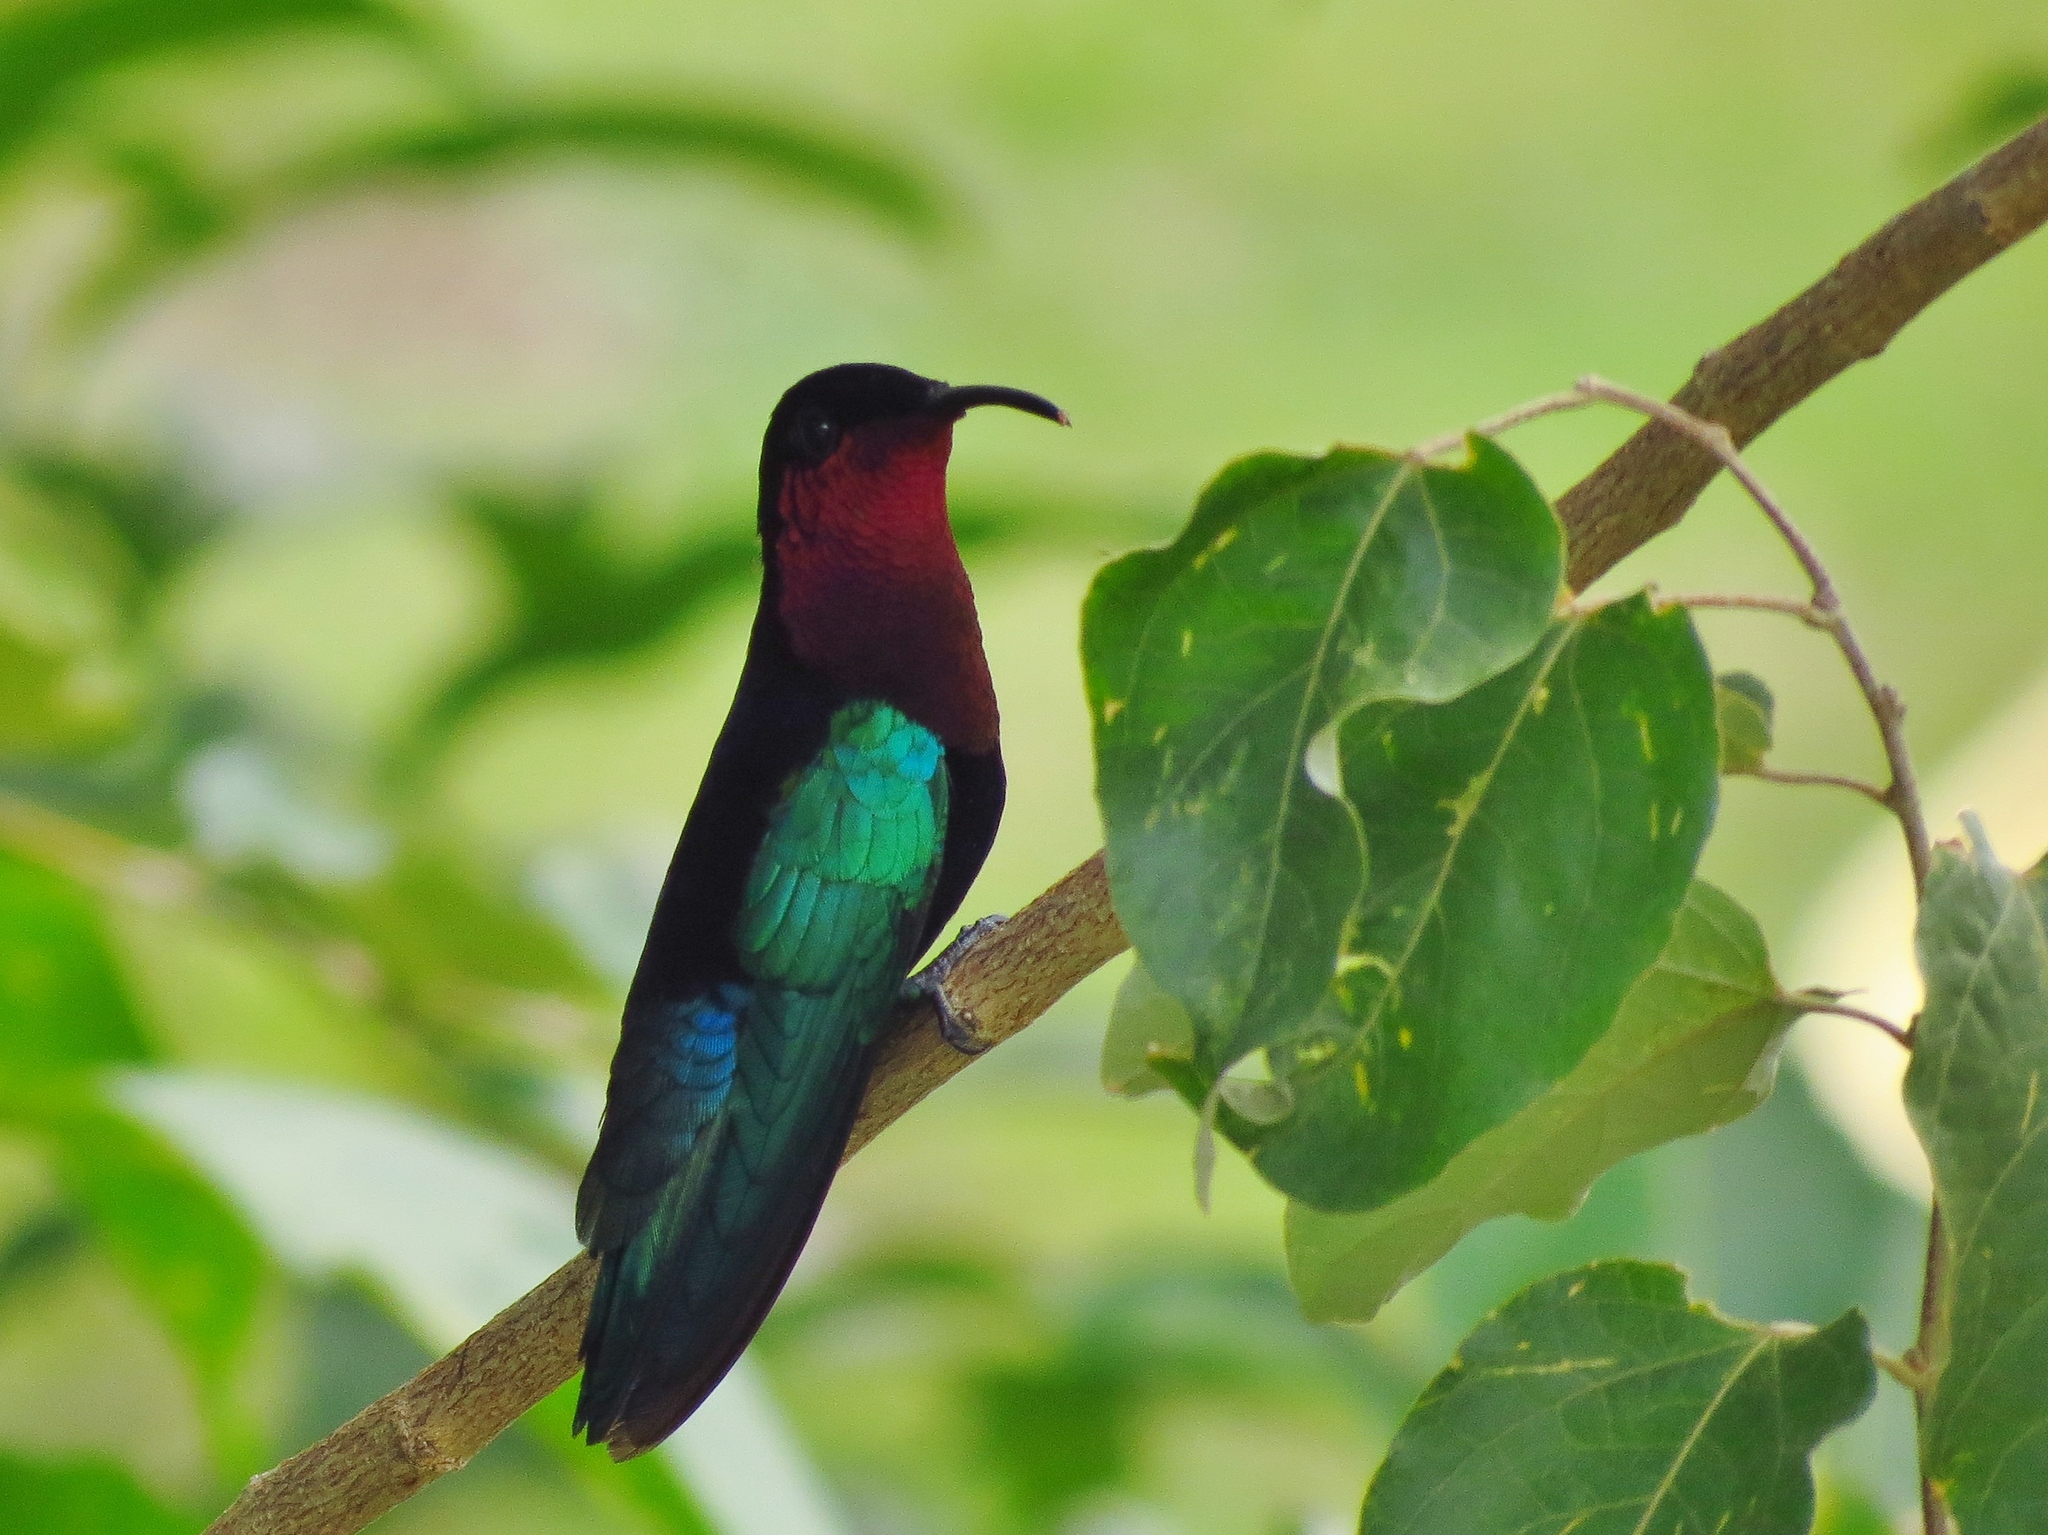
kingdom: Animalia
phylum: Chordata
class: Aves
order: Apodiformes
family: Trochilidae
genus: Eulampis
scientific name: Eulampis jugularis
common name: Purple-throated carib
